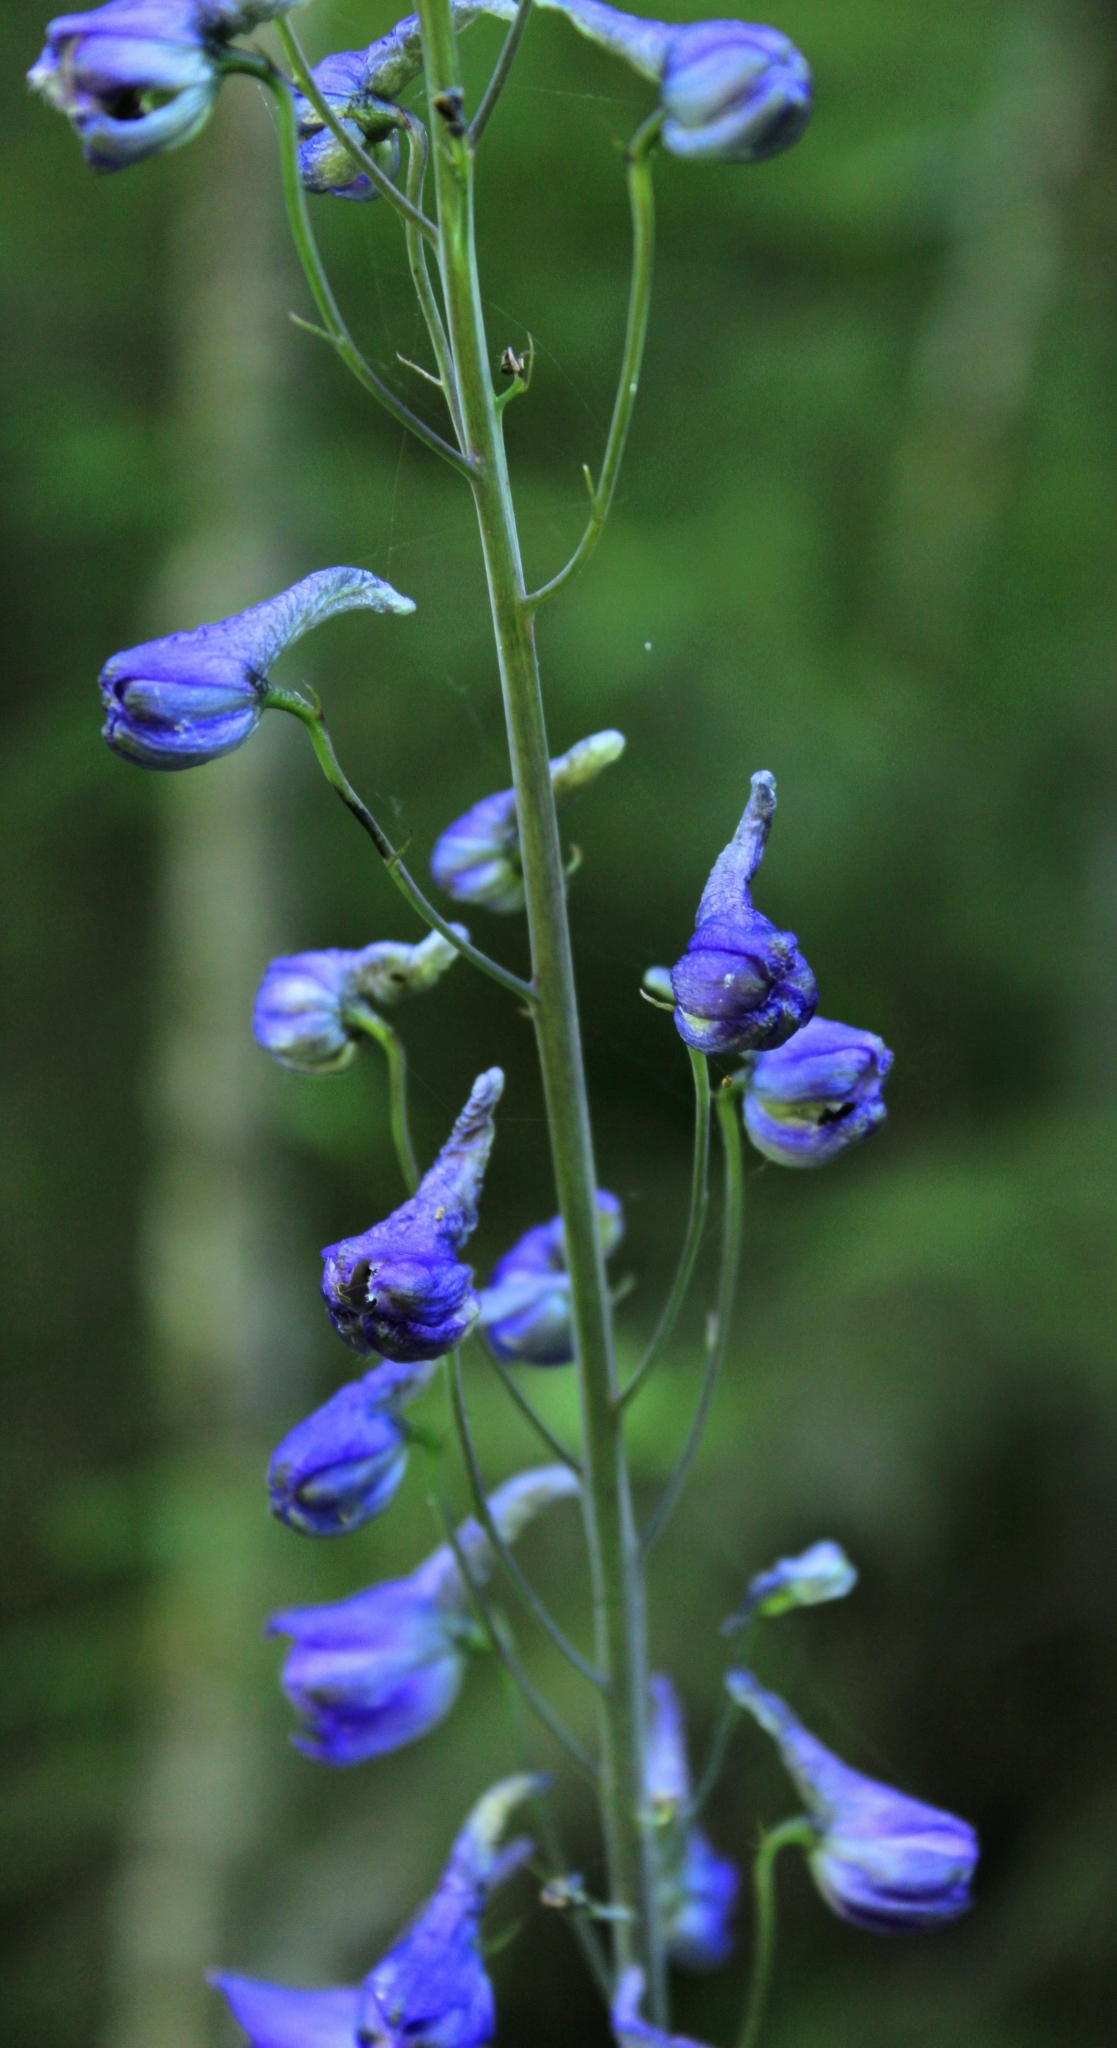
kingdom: Plantae
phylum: Tracheophyta
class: Magnoliopsida
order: Ranunculales
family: Ranunculaceae
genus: Delphinium
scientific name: Delphinium elatum
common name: Candle larkspur
